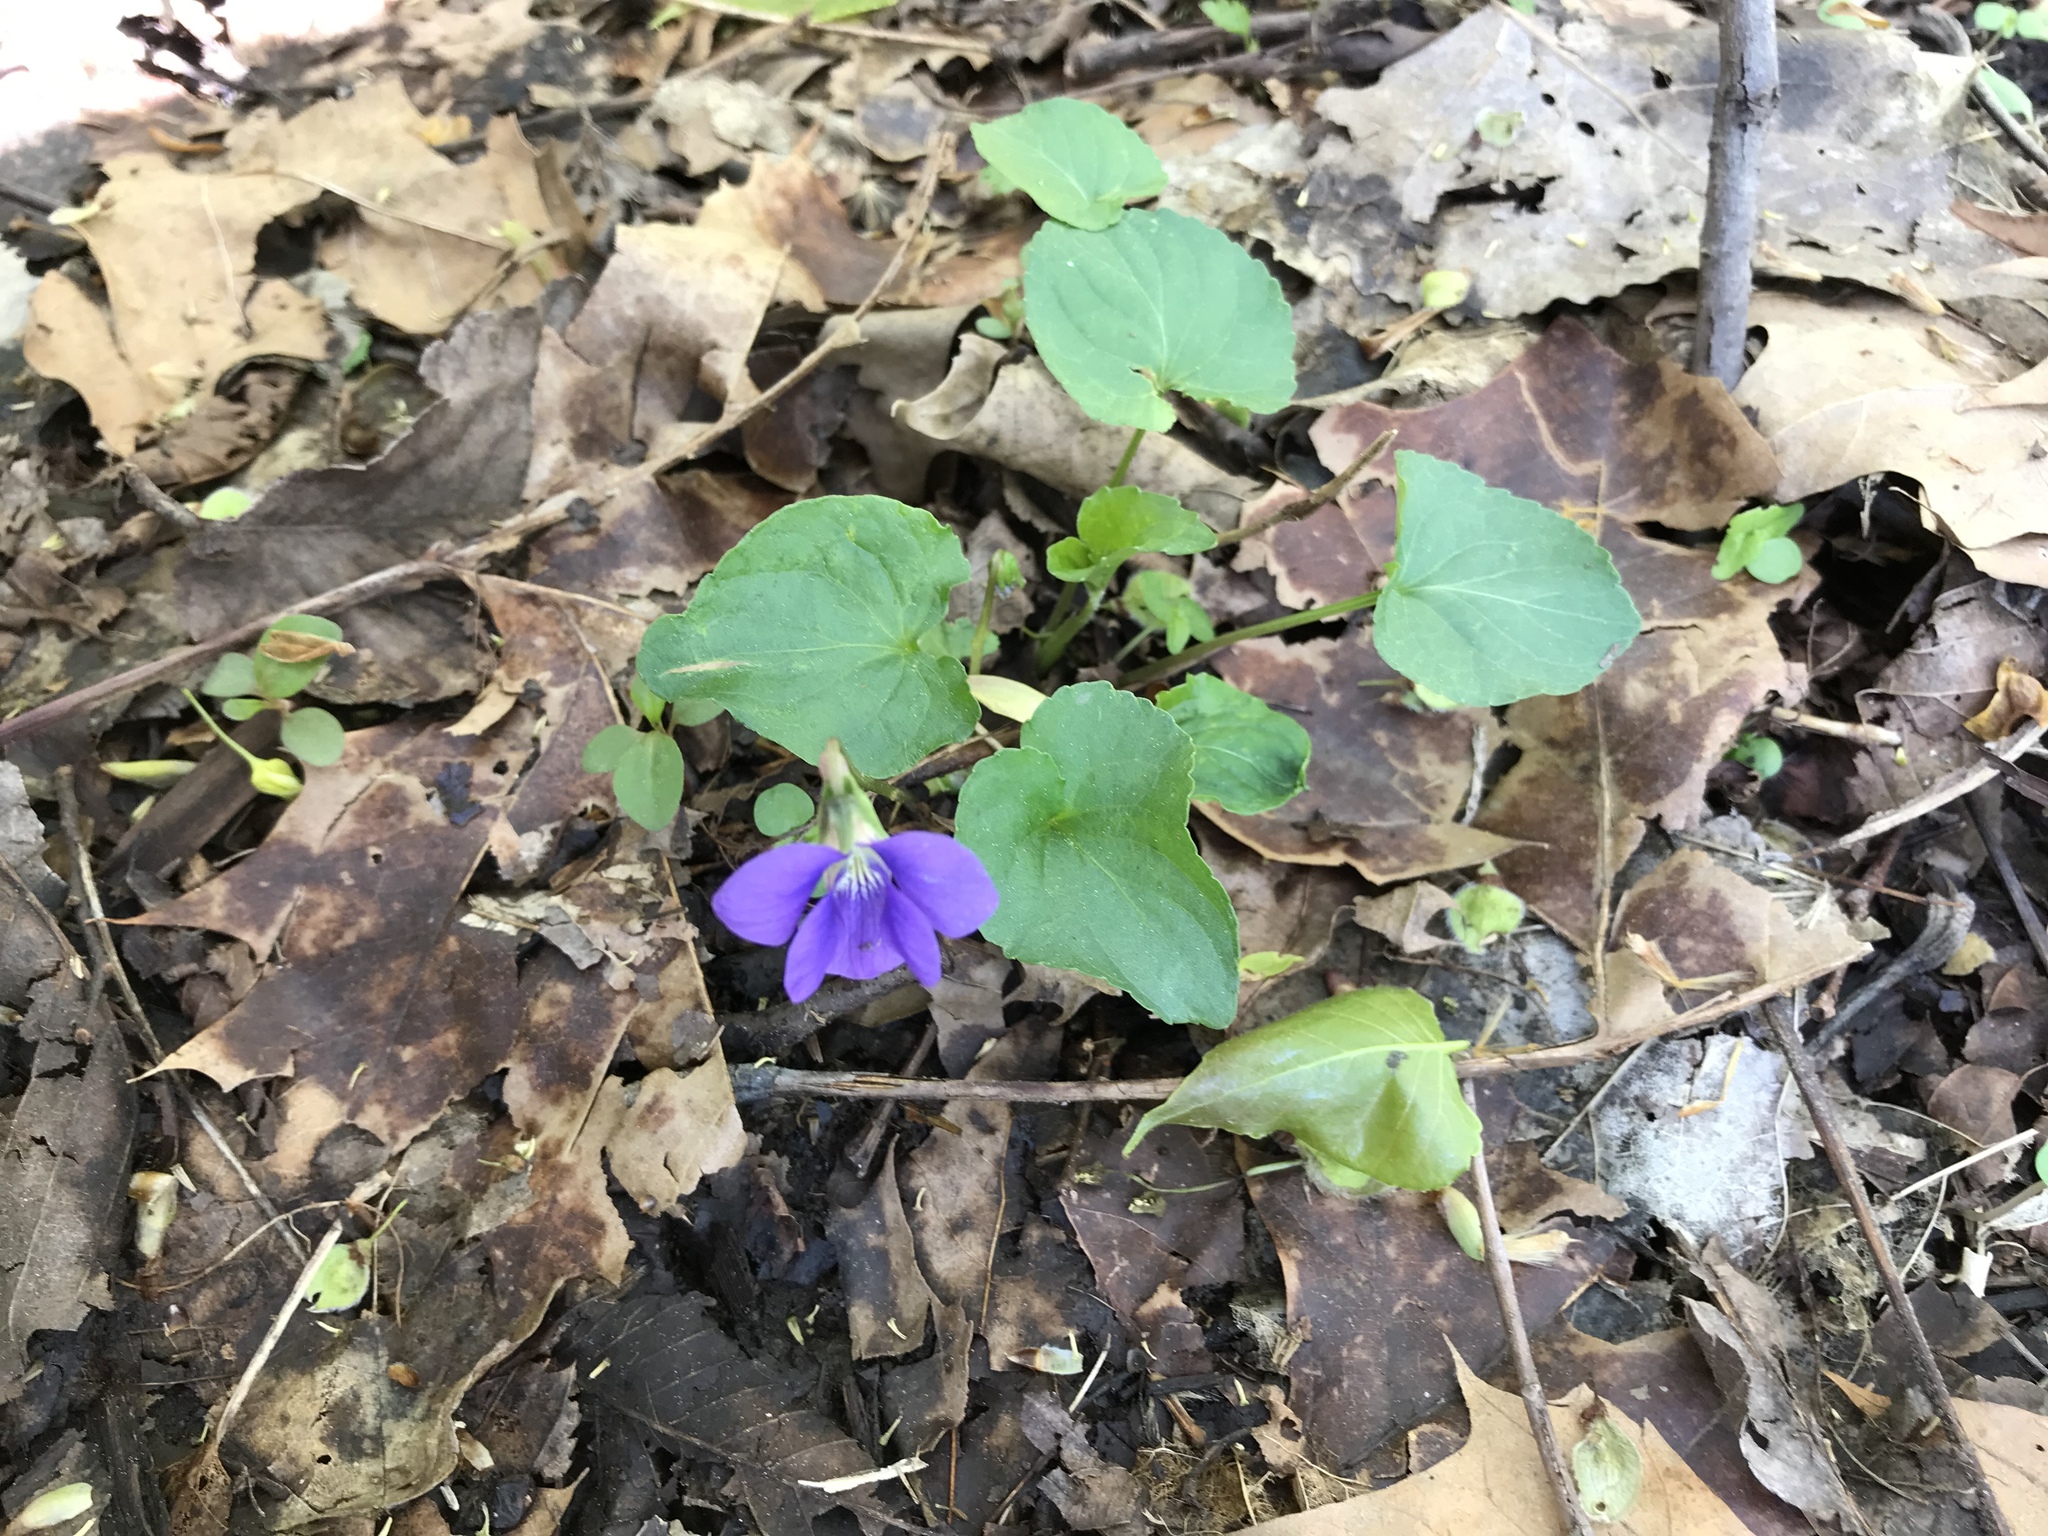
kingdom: Plantae
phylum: Tracheophyta
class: Magnoliopsida
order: Malpighiales
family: Violaceae
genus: Viola
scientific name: Viola sororia
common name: Dooryard violet
